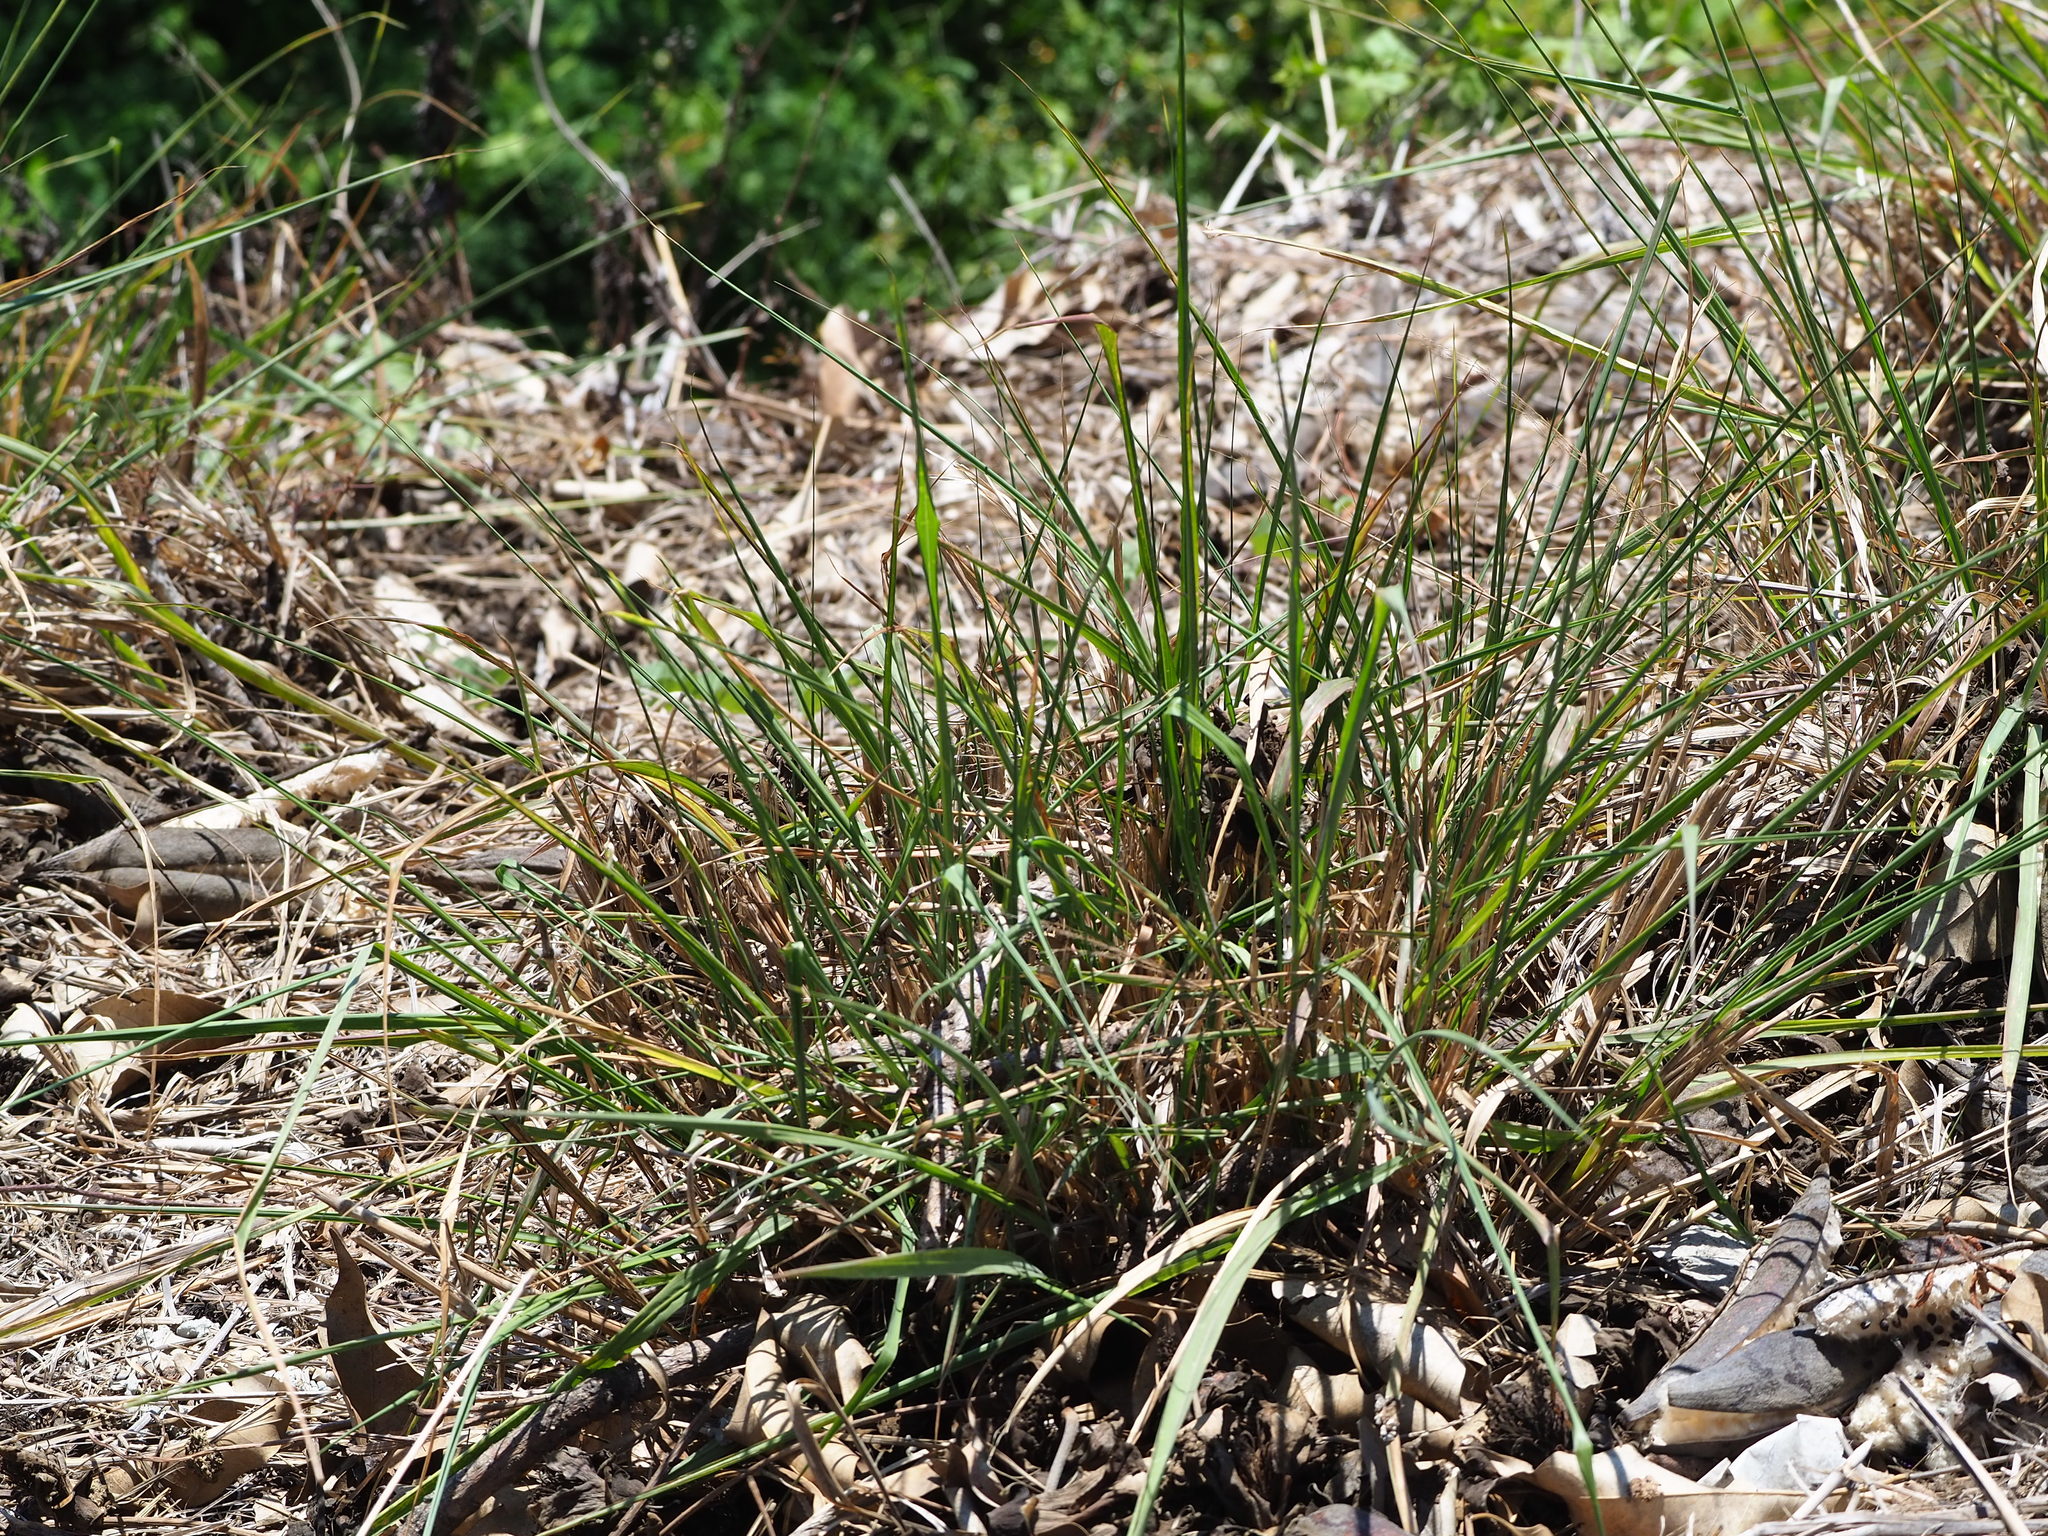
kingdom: Plantae
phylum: Tracheophyta
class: Liliopsida
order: Poales
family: Poaceae
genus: Megathyrsus
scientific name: Megathyrsus maximus
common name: Guineagrass
